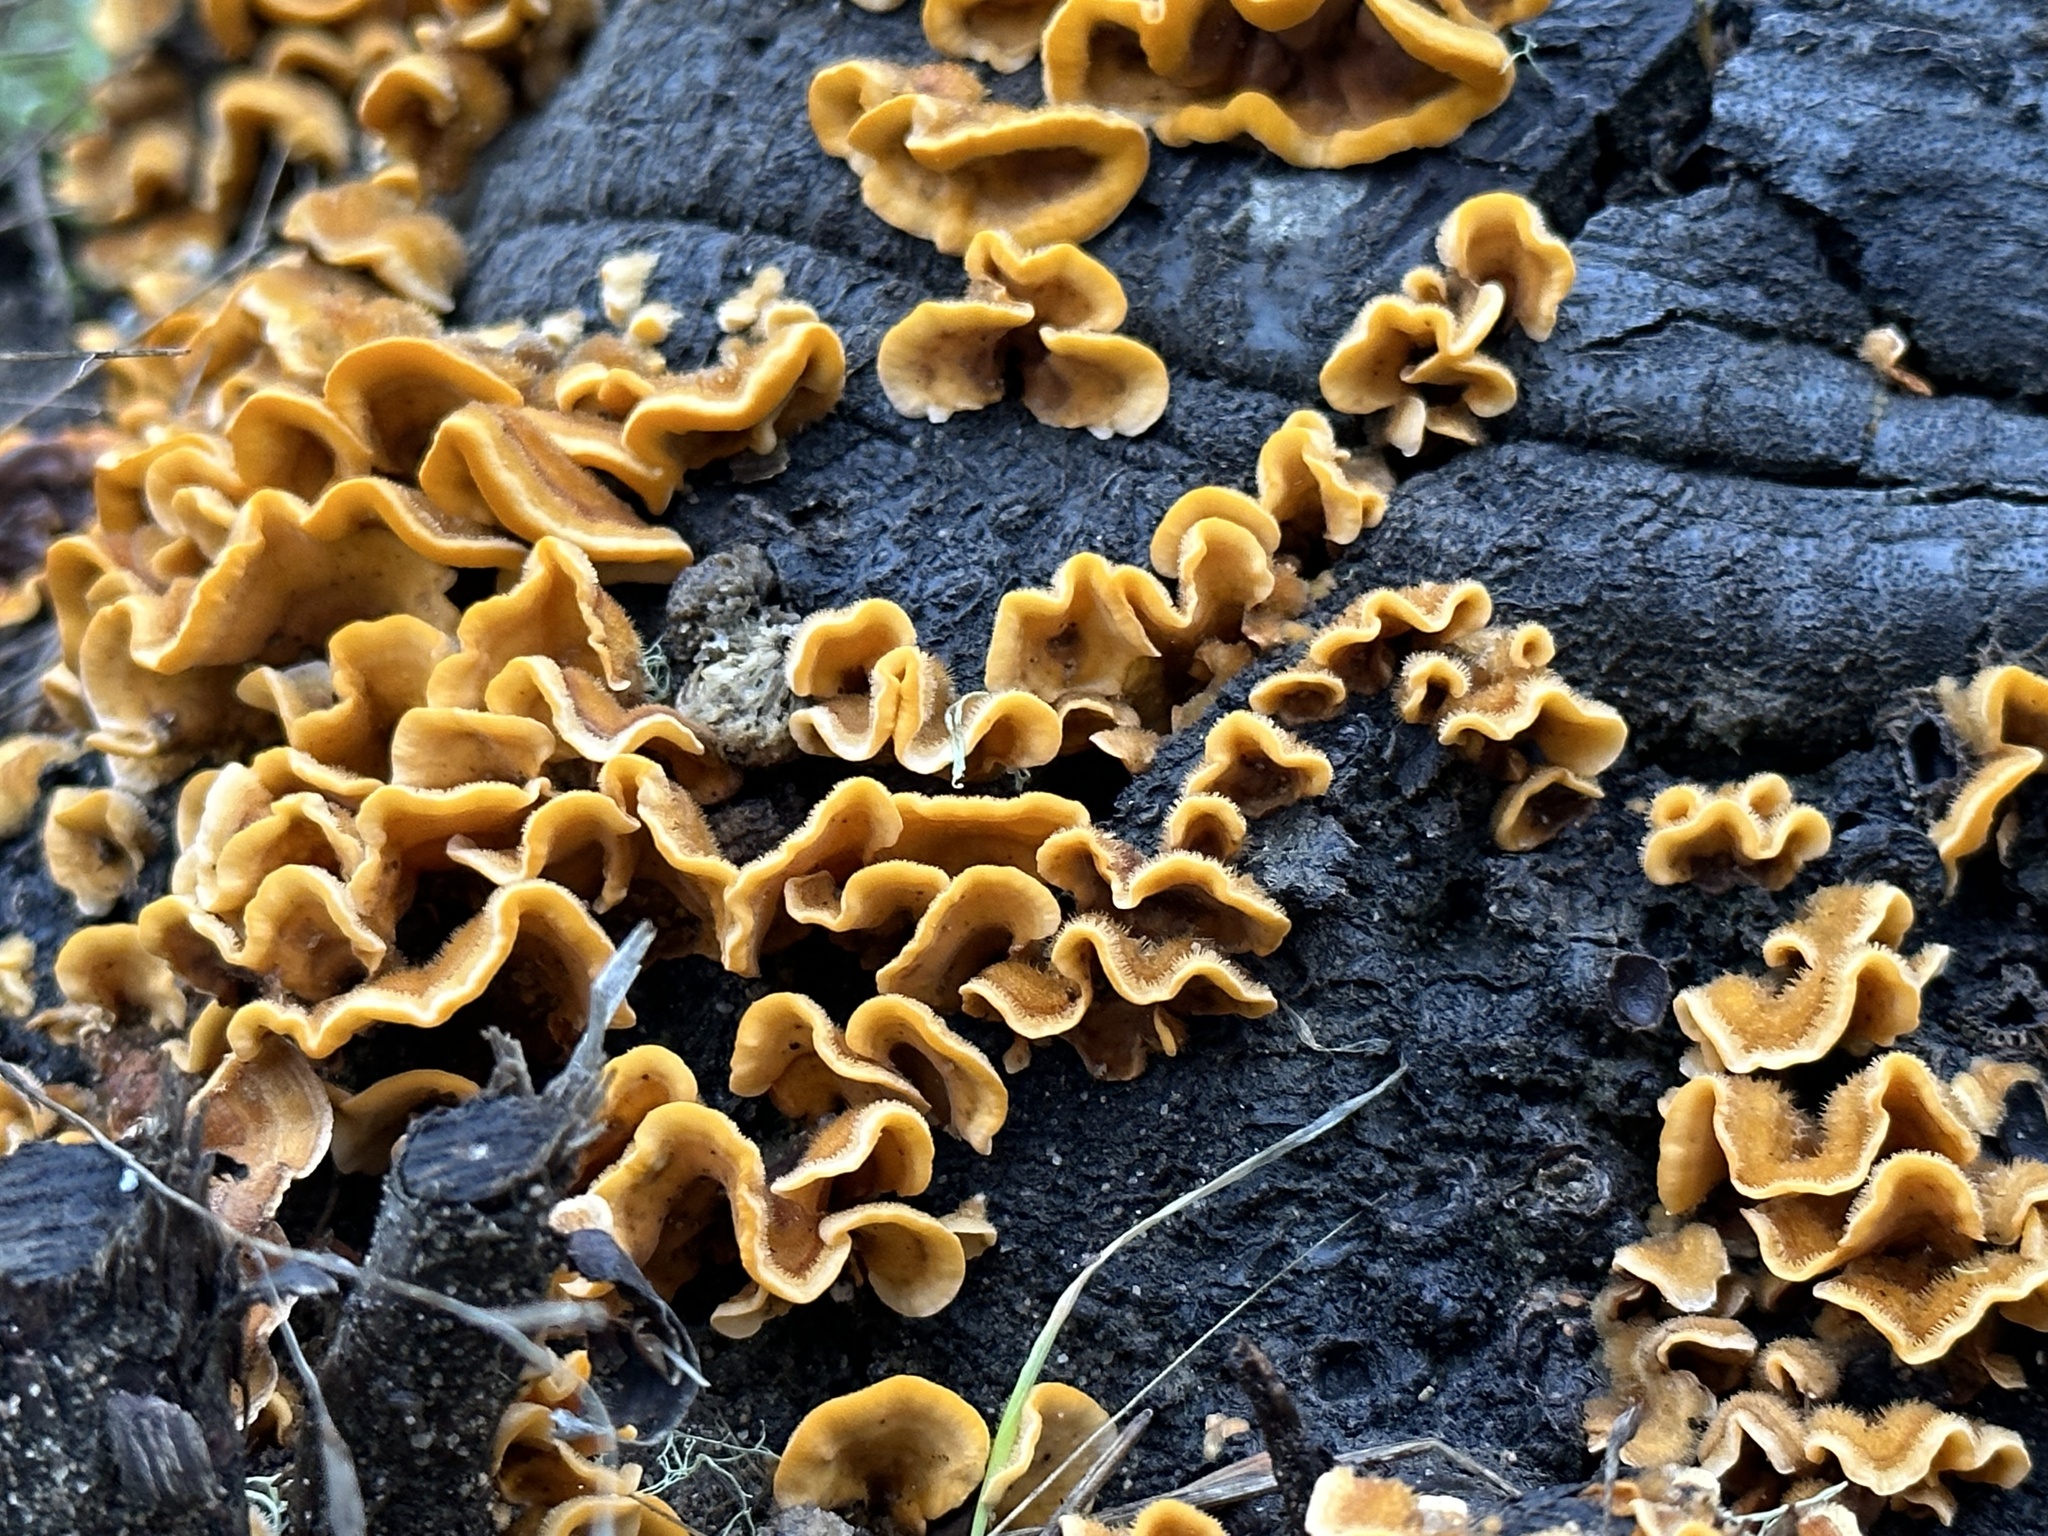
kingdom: Fungi
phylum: Basidiomycota
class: Agaricomycetes
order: Russulales
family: Stereaceae
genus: Stereum
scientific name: Stereum hirsutum
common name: Hairy curtain crust
